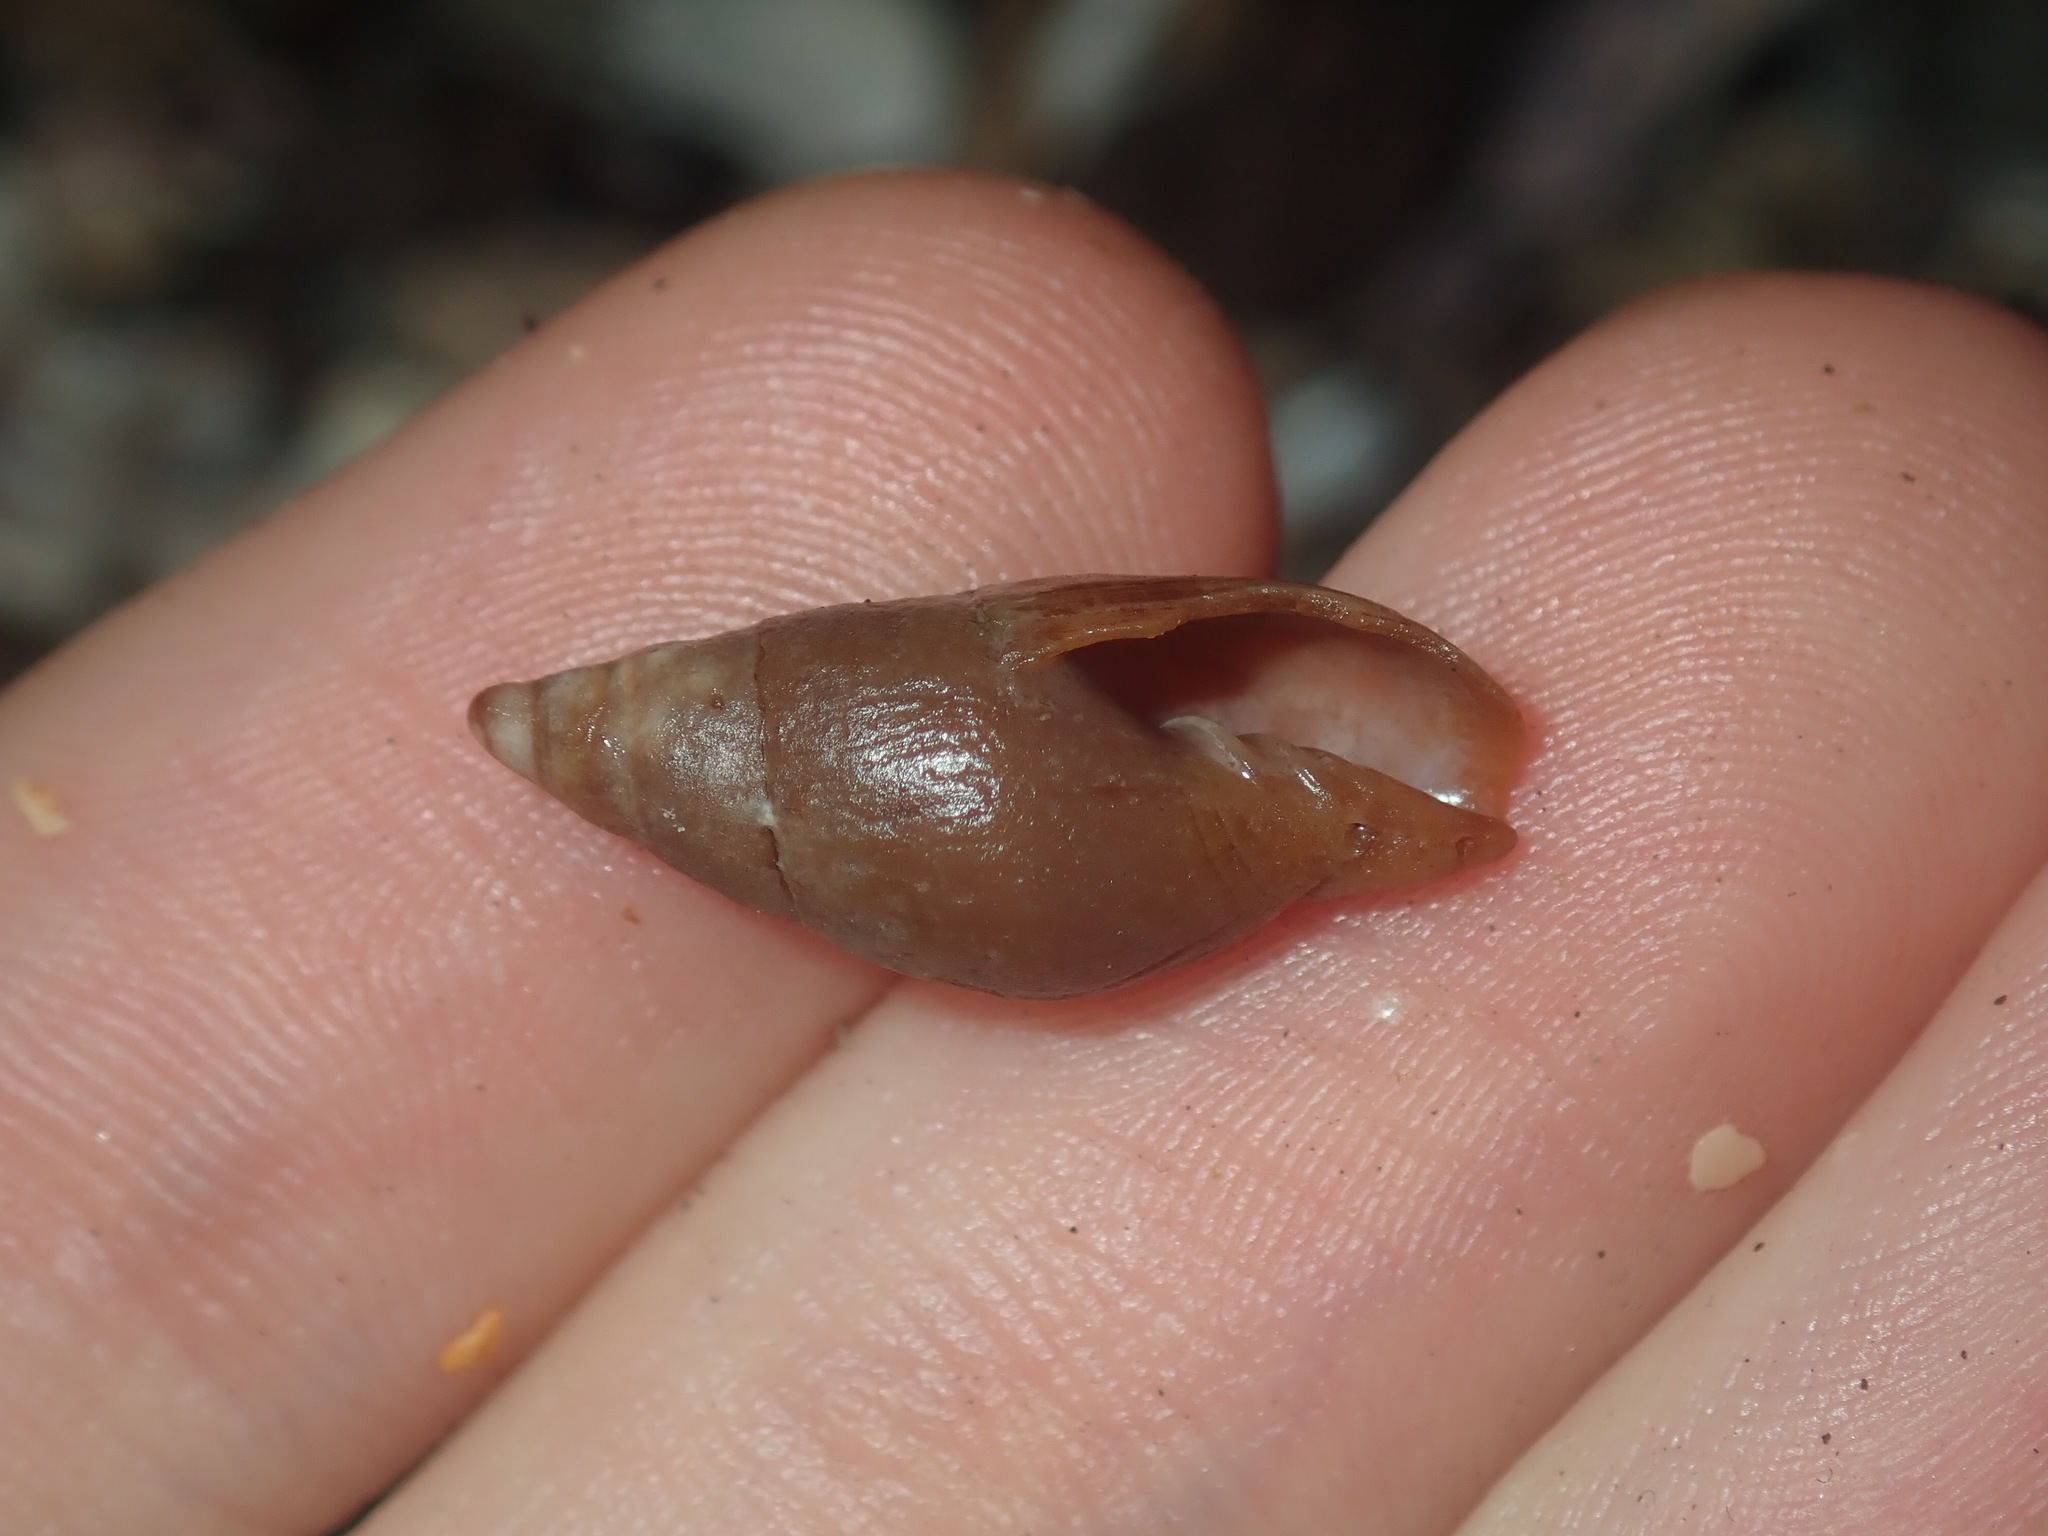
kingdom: Animalia
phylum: Mollusca
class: Gastropoda
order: Neogastropoda
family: Mitridae
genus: Isara
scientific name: Isara badia
